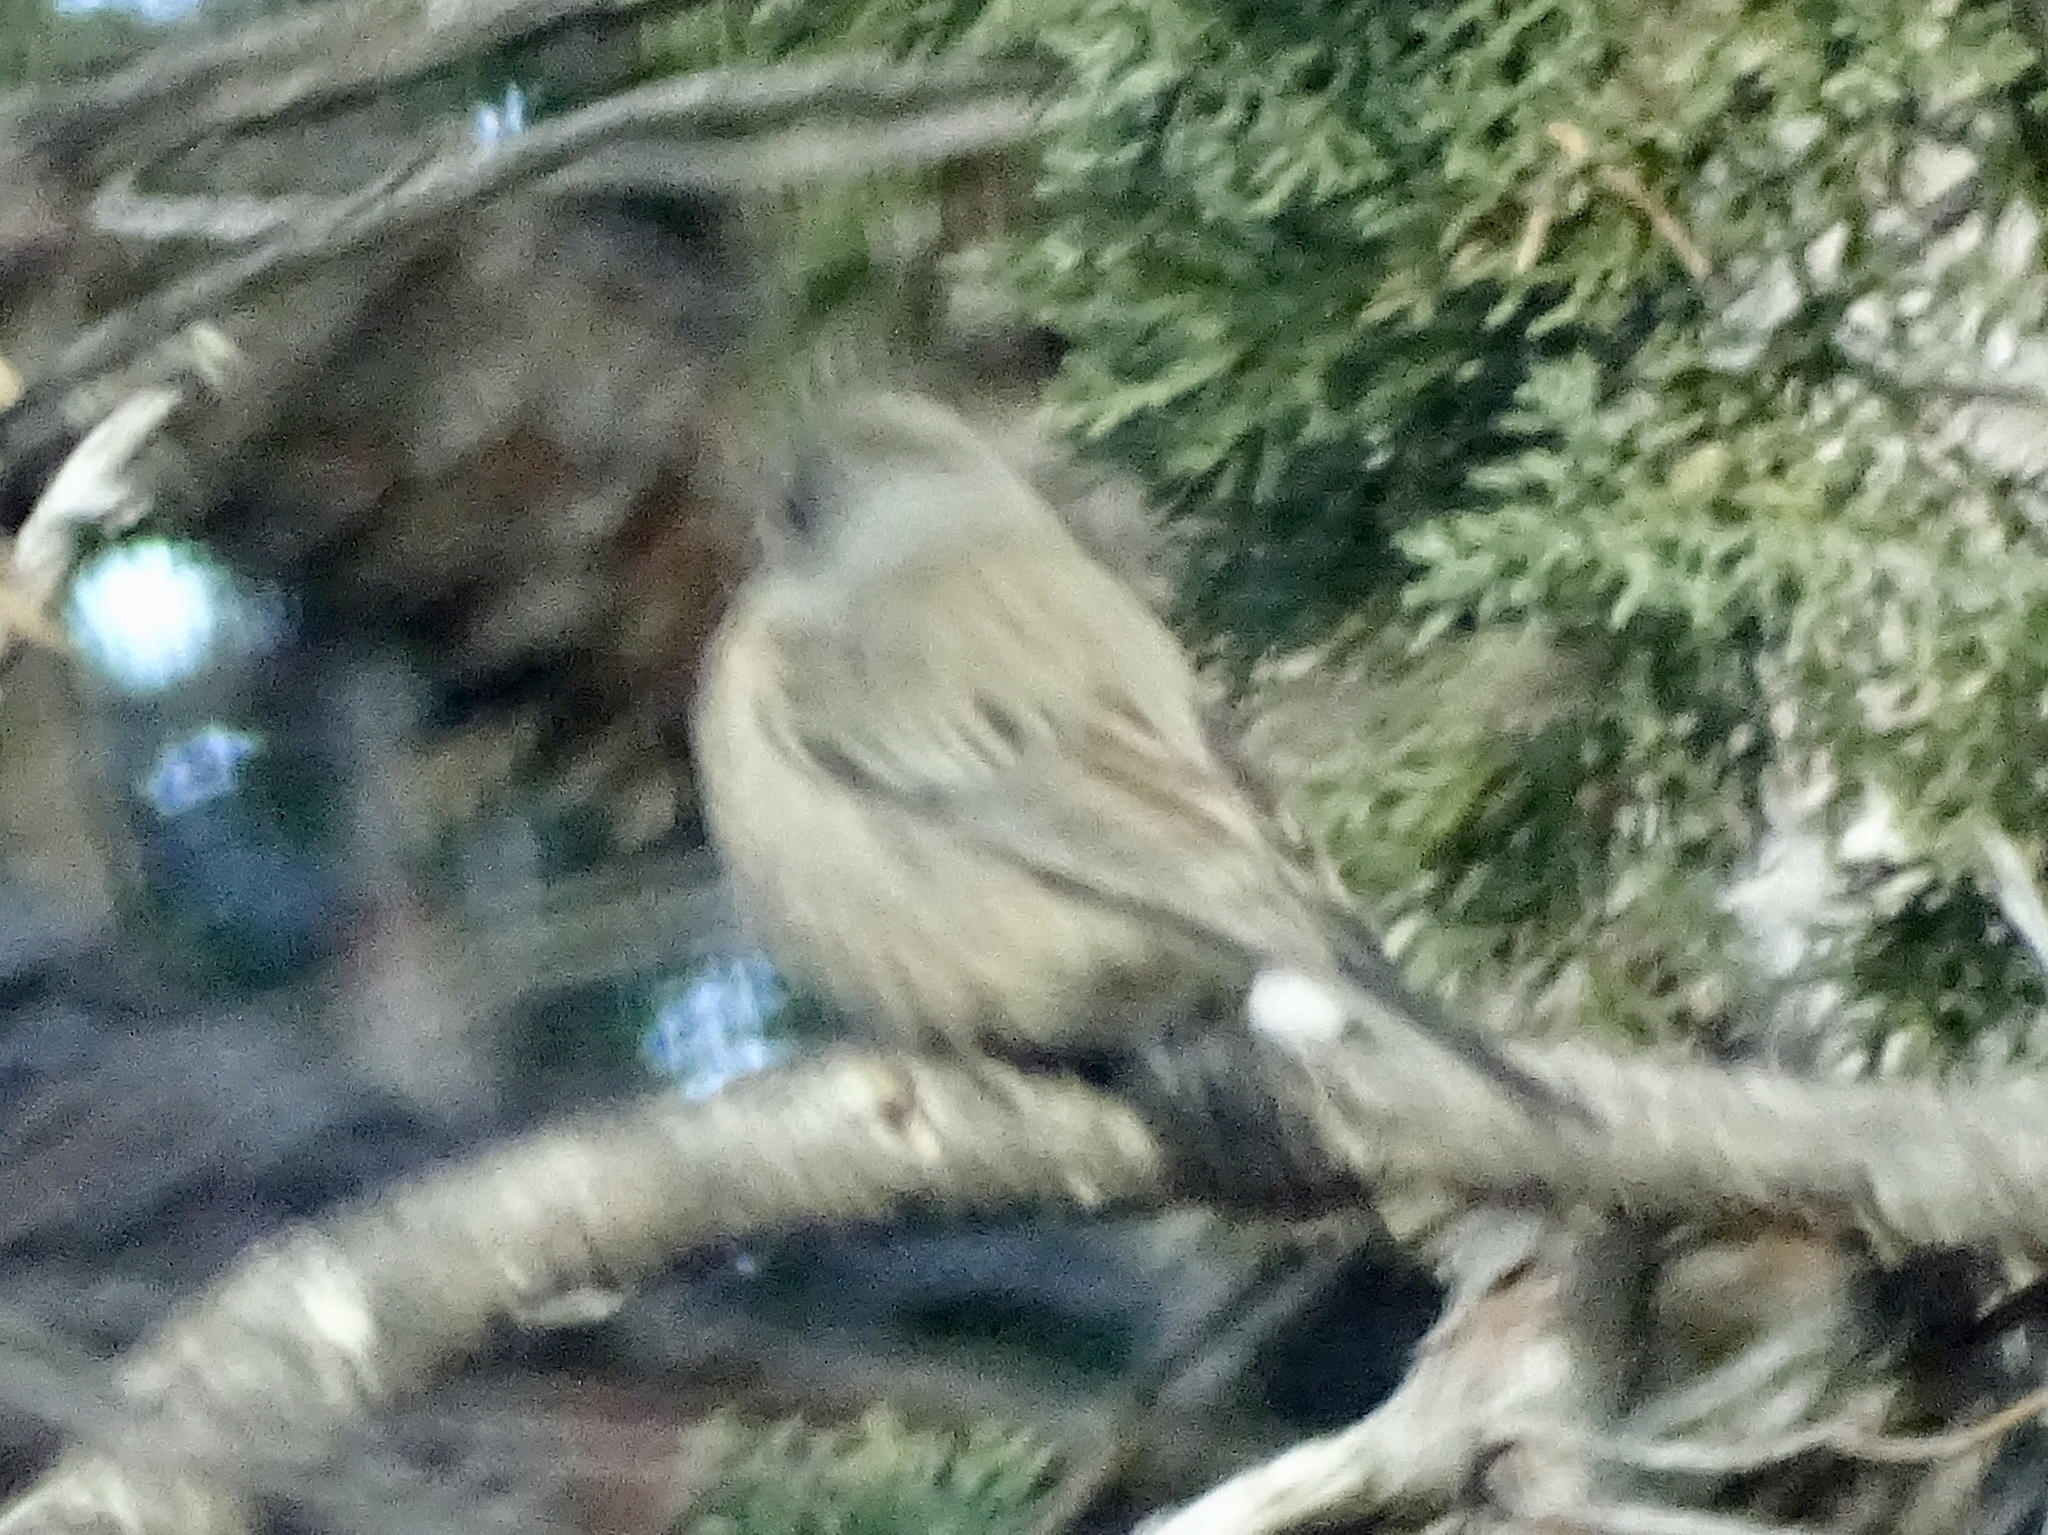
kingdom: Animalia
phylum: Chordata
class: Aves
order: Passeriformes
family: Passerellidae
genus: Junco
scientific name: Junco hyemalis
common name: Dark-eyed junco
